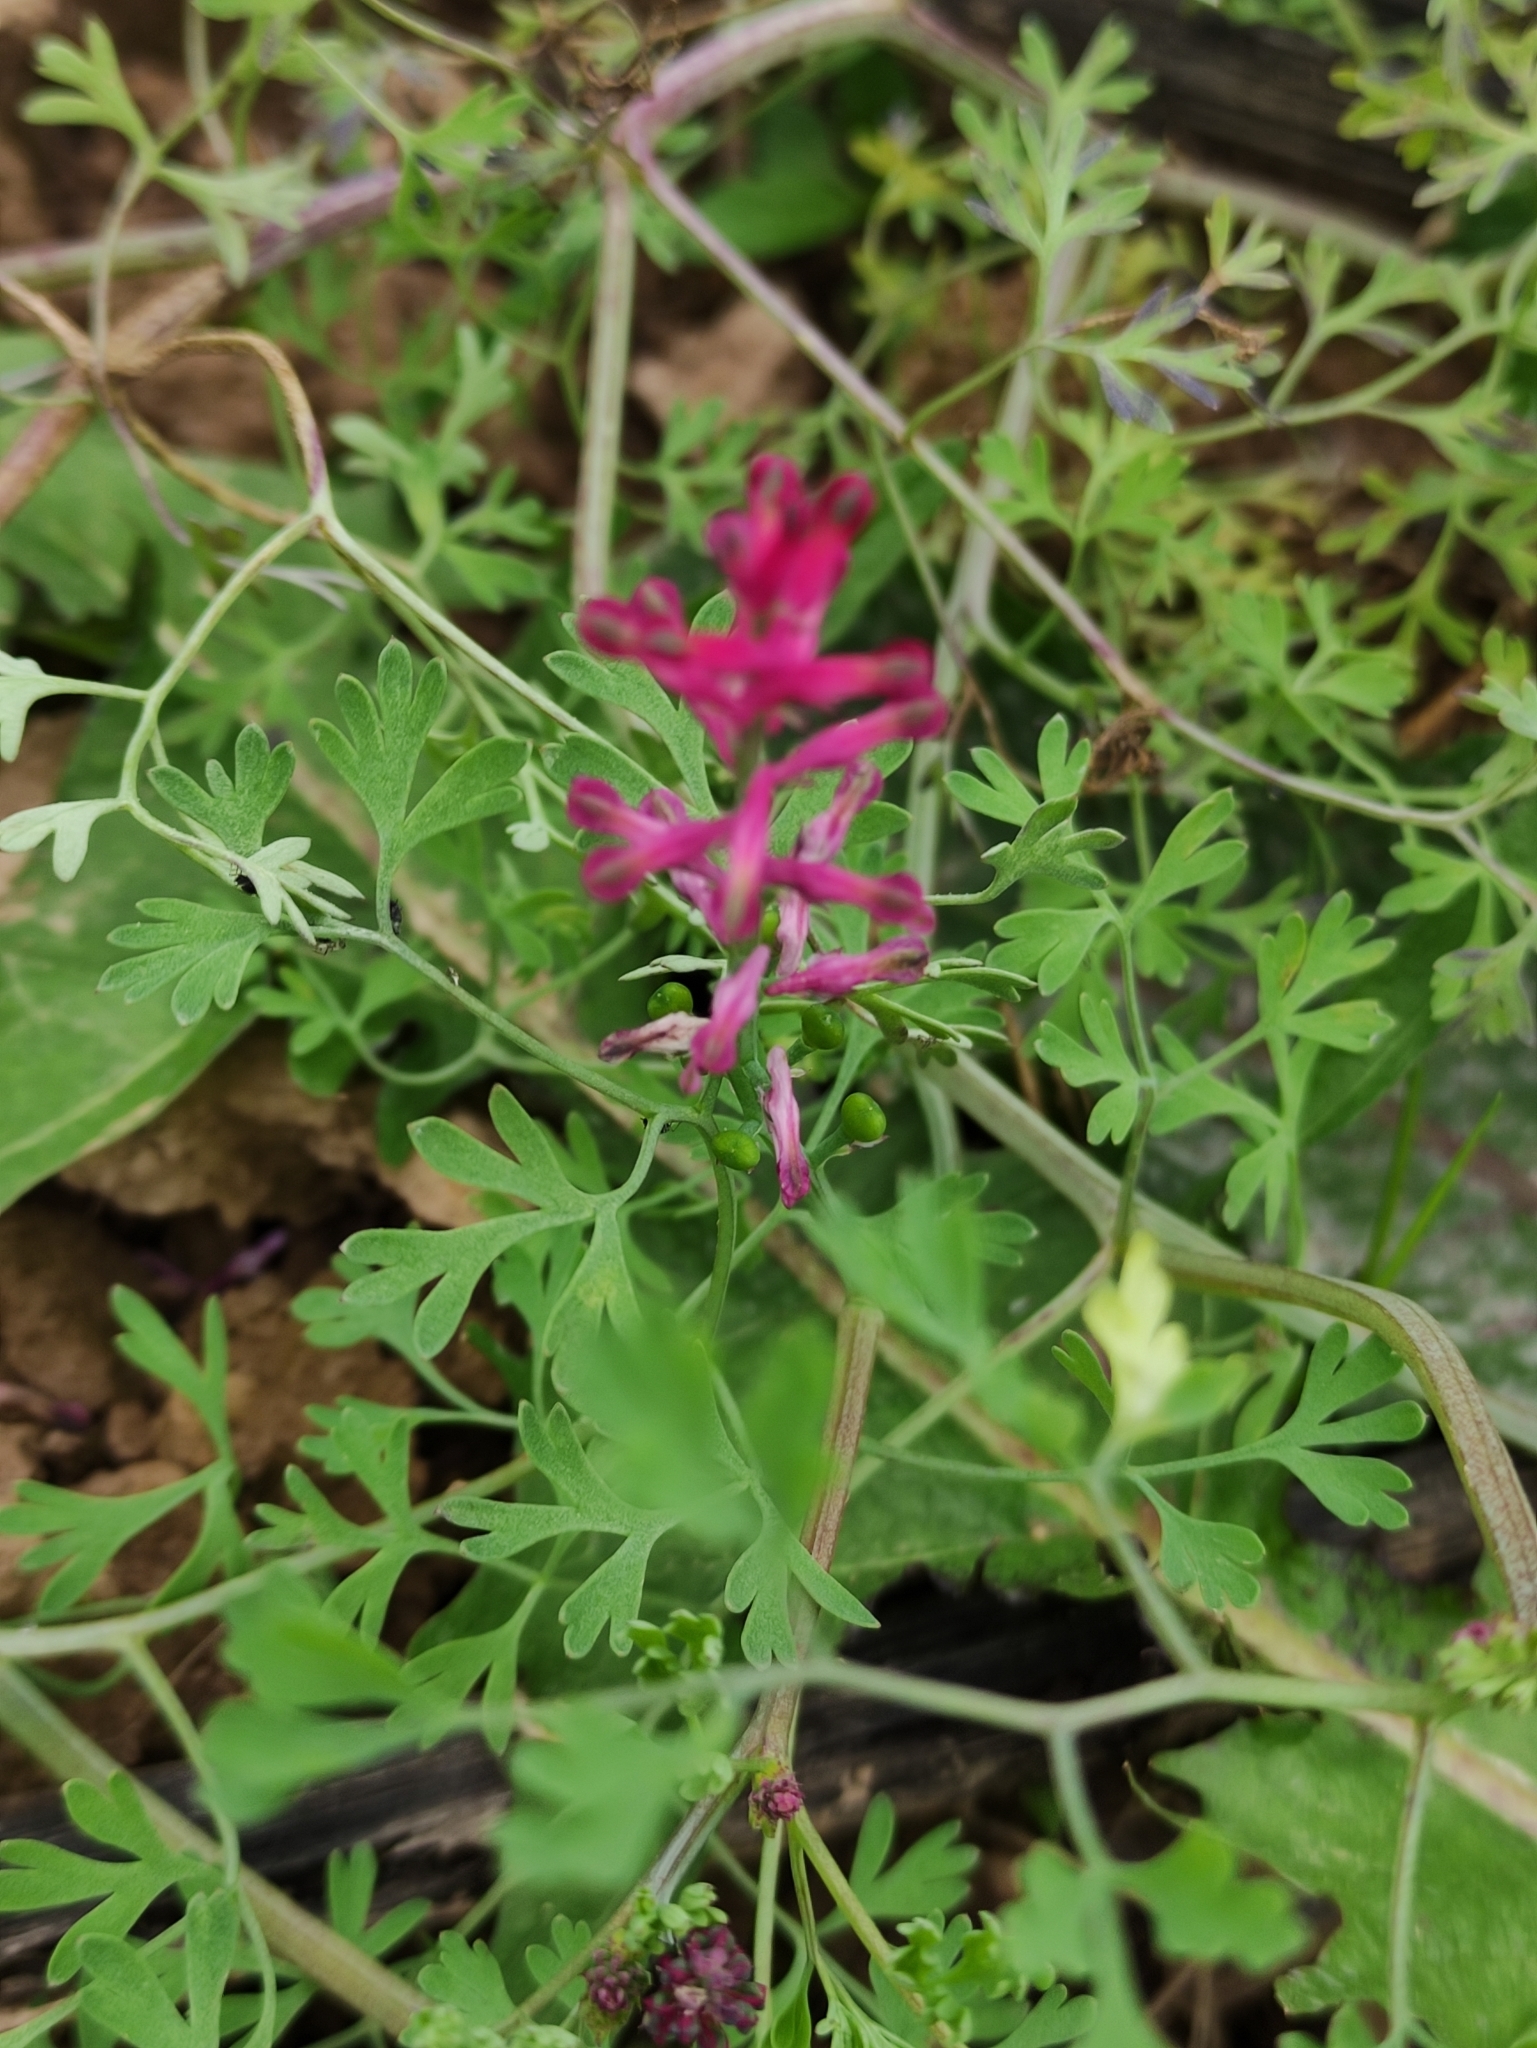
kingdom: Plantae
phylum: Tracheophyta
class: Magnoliopsida
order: Ranunculales
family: Papaveraceae
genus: Fumaria
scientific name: Fumaria officinalis
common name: Common fumitory
